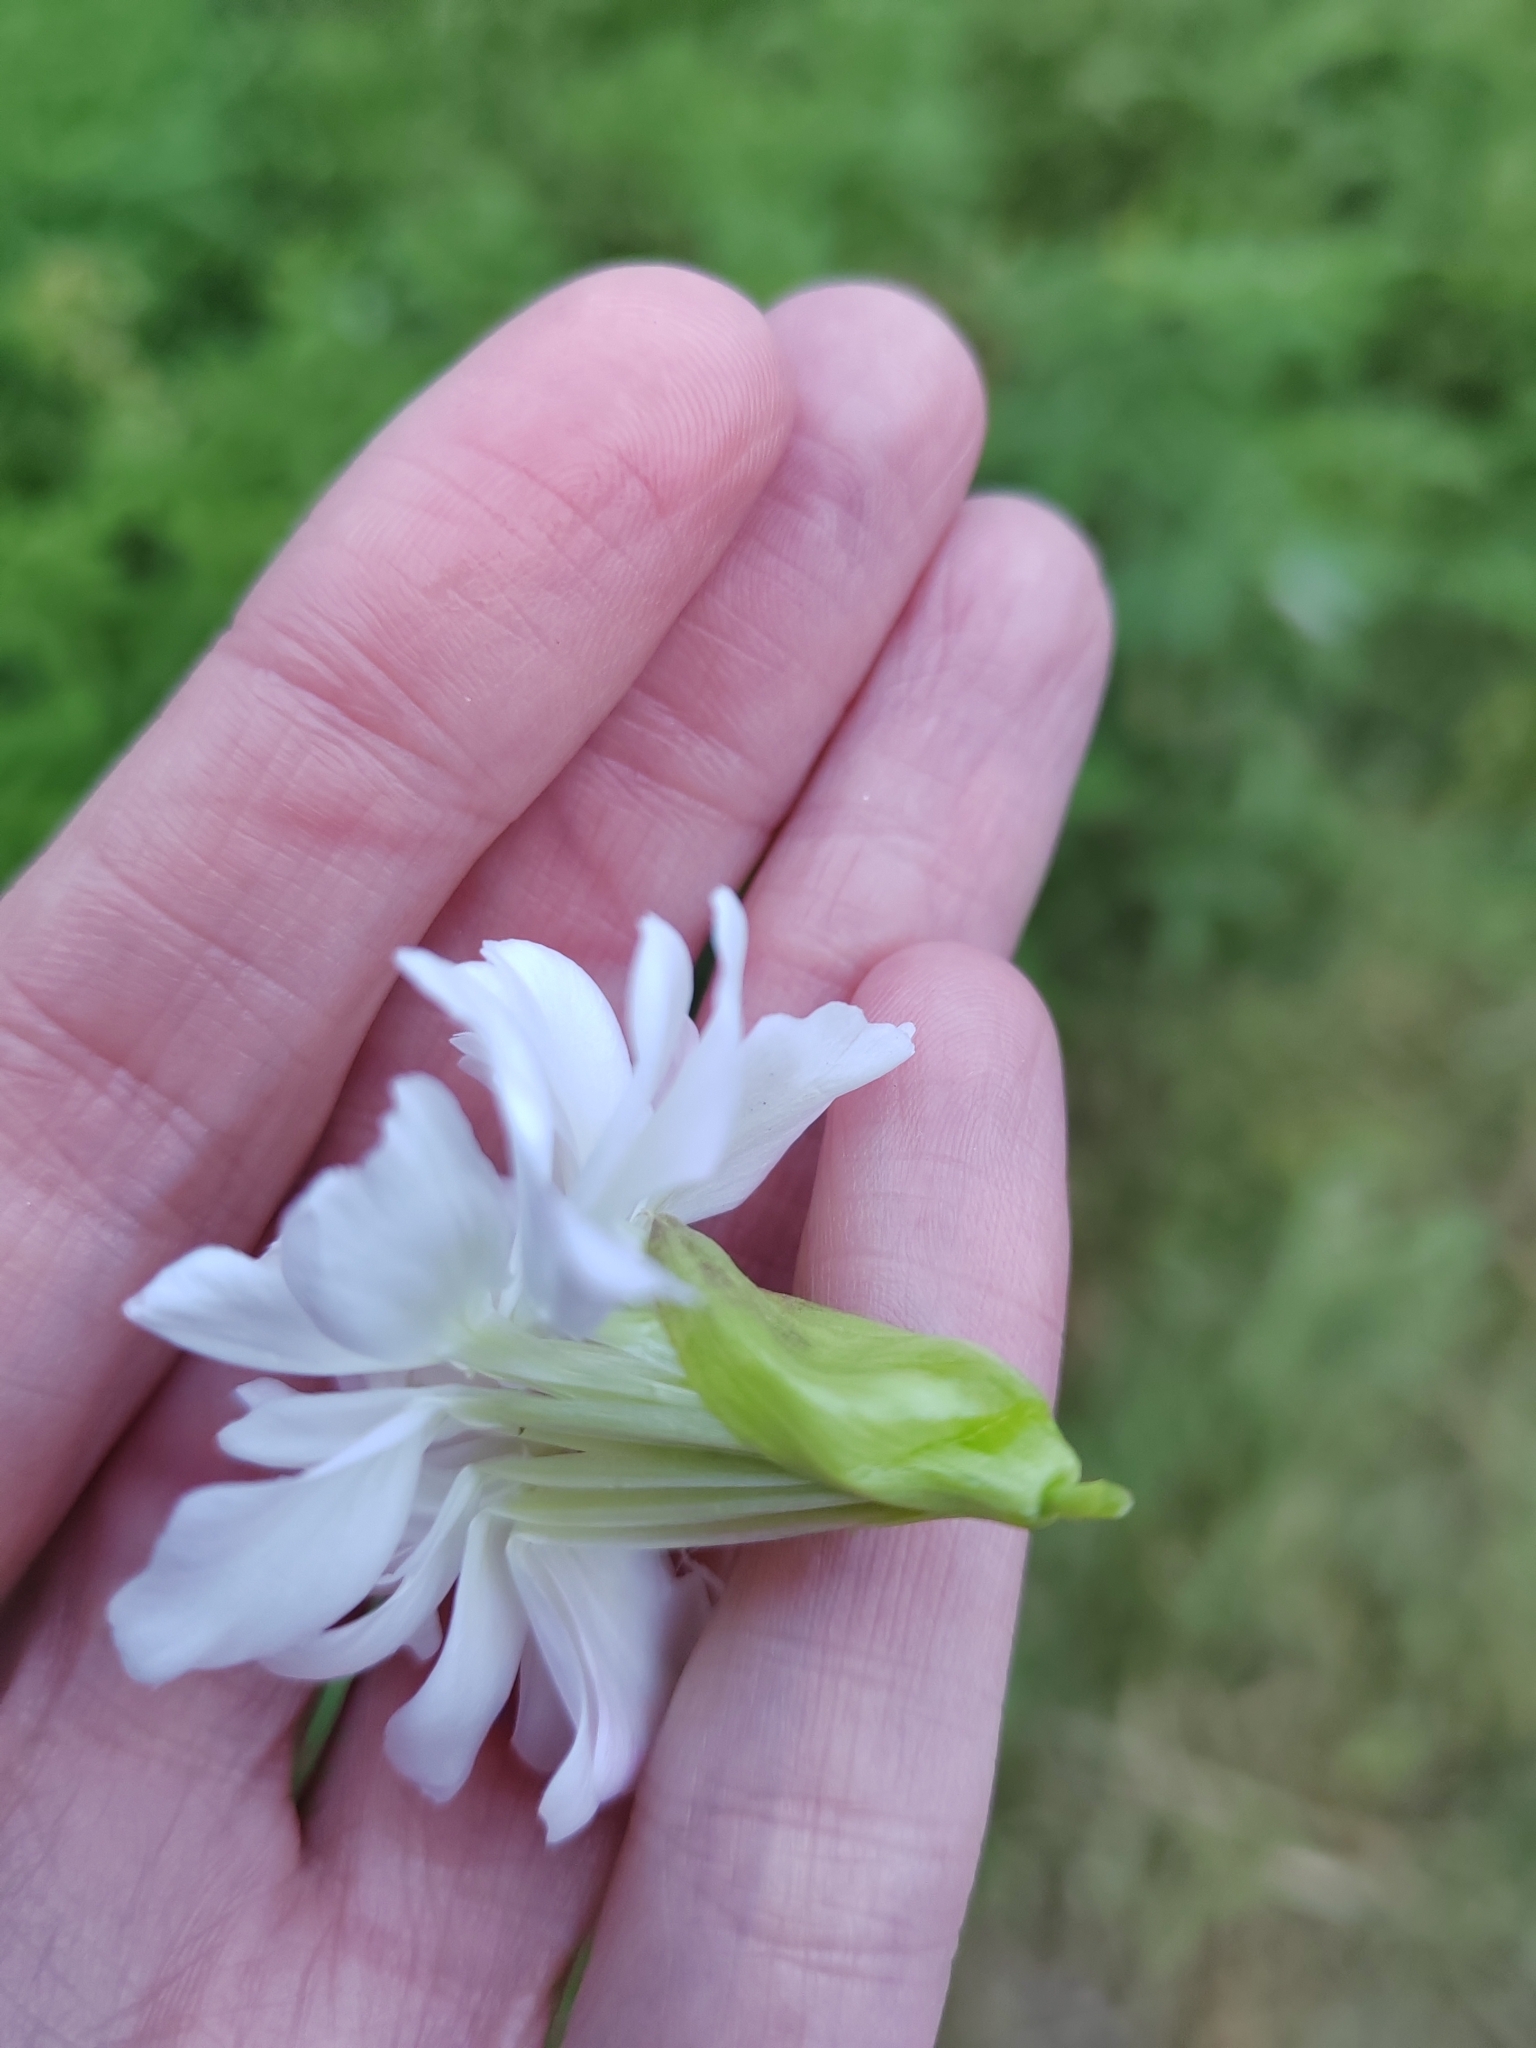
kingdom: Plantae
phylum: Tracheophyta
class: Magnoliopsida
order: Caryophyllales
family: Caryophyllaceae
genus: Saponaria
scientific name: Saponaria officinalis
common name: Soapwort
